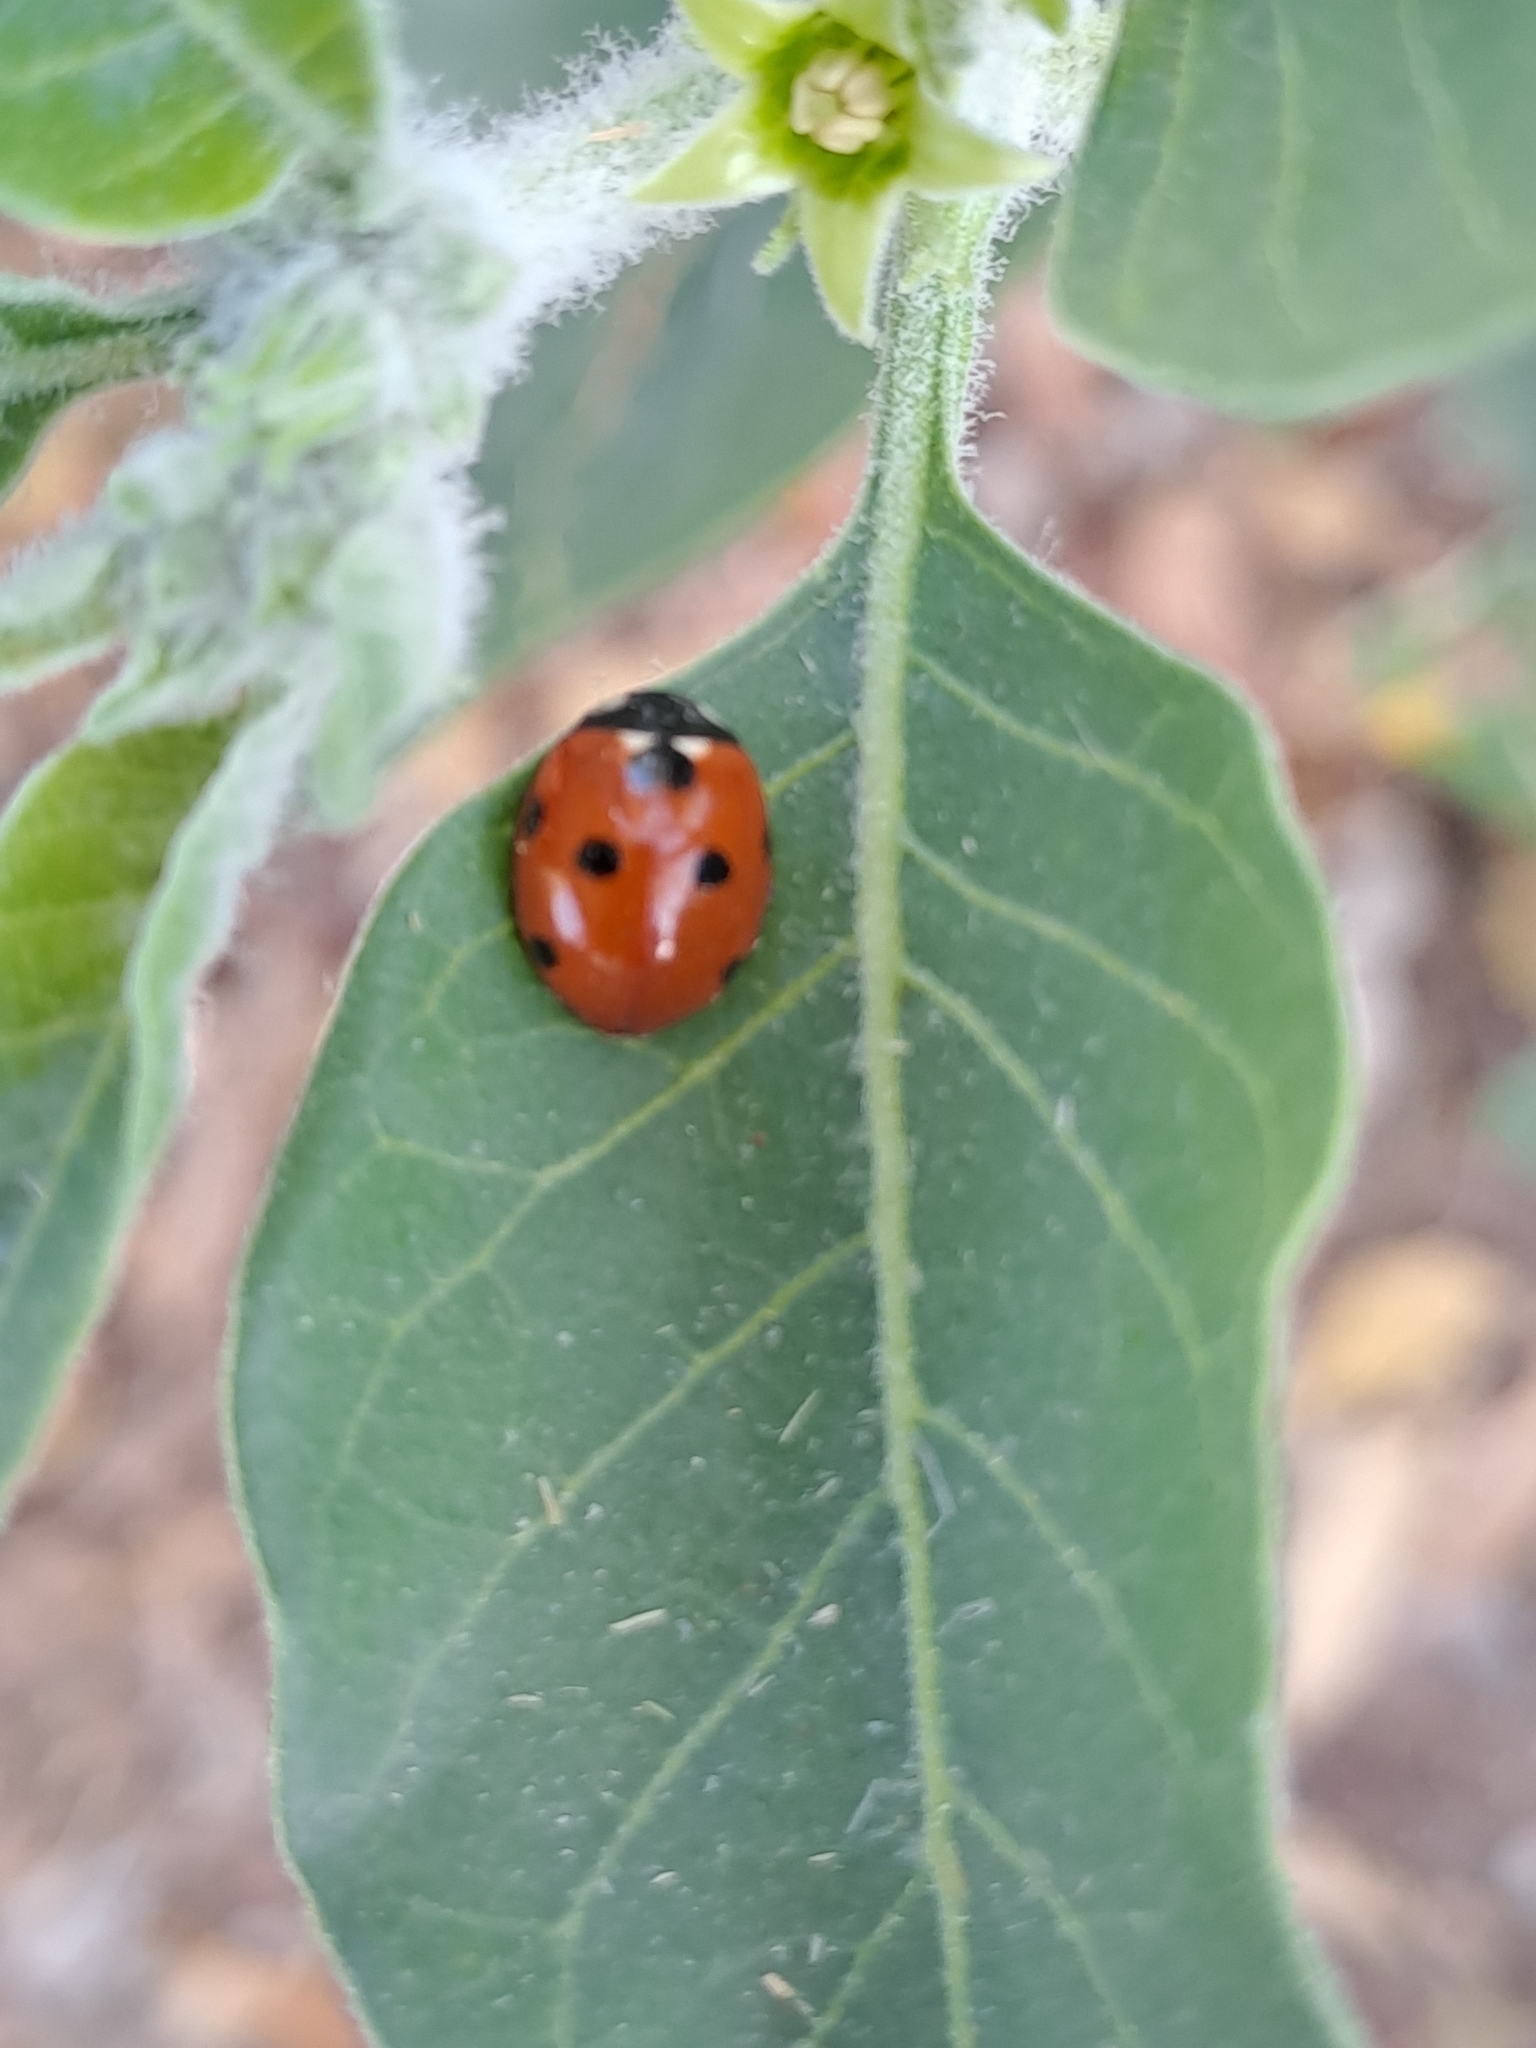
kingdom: Animalia
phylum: Arthropoda
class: Insecta
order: Coleoptera
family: Coccinellidae
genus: Coccinella
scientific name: Coccinella septempunctata
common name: Sevenspotted lady beetle
